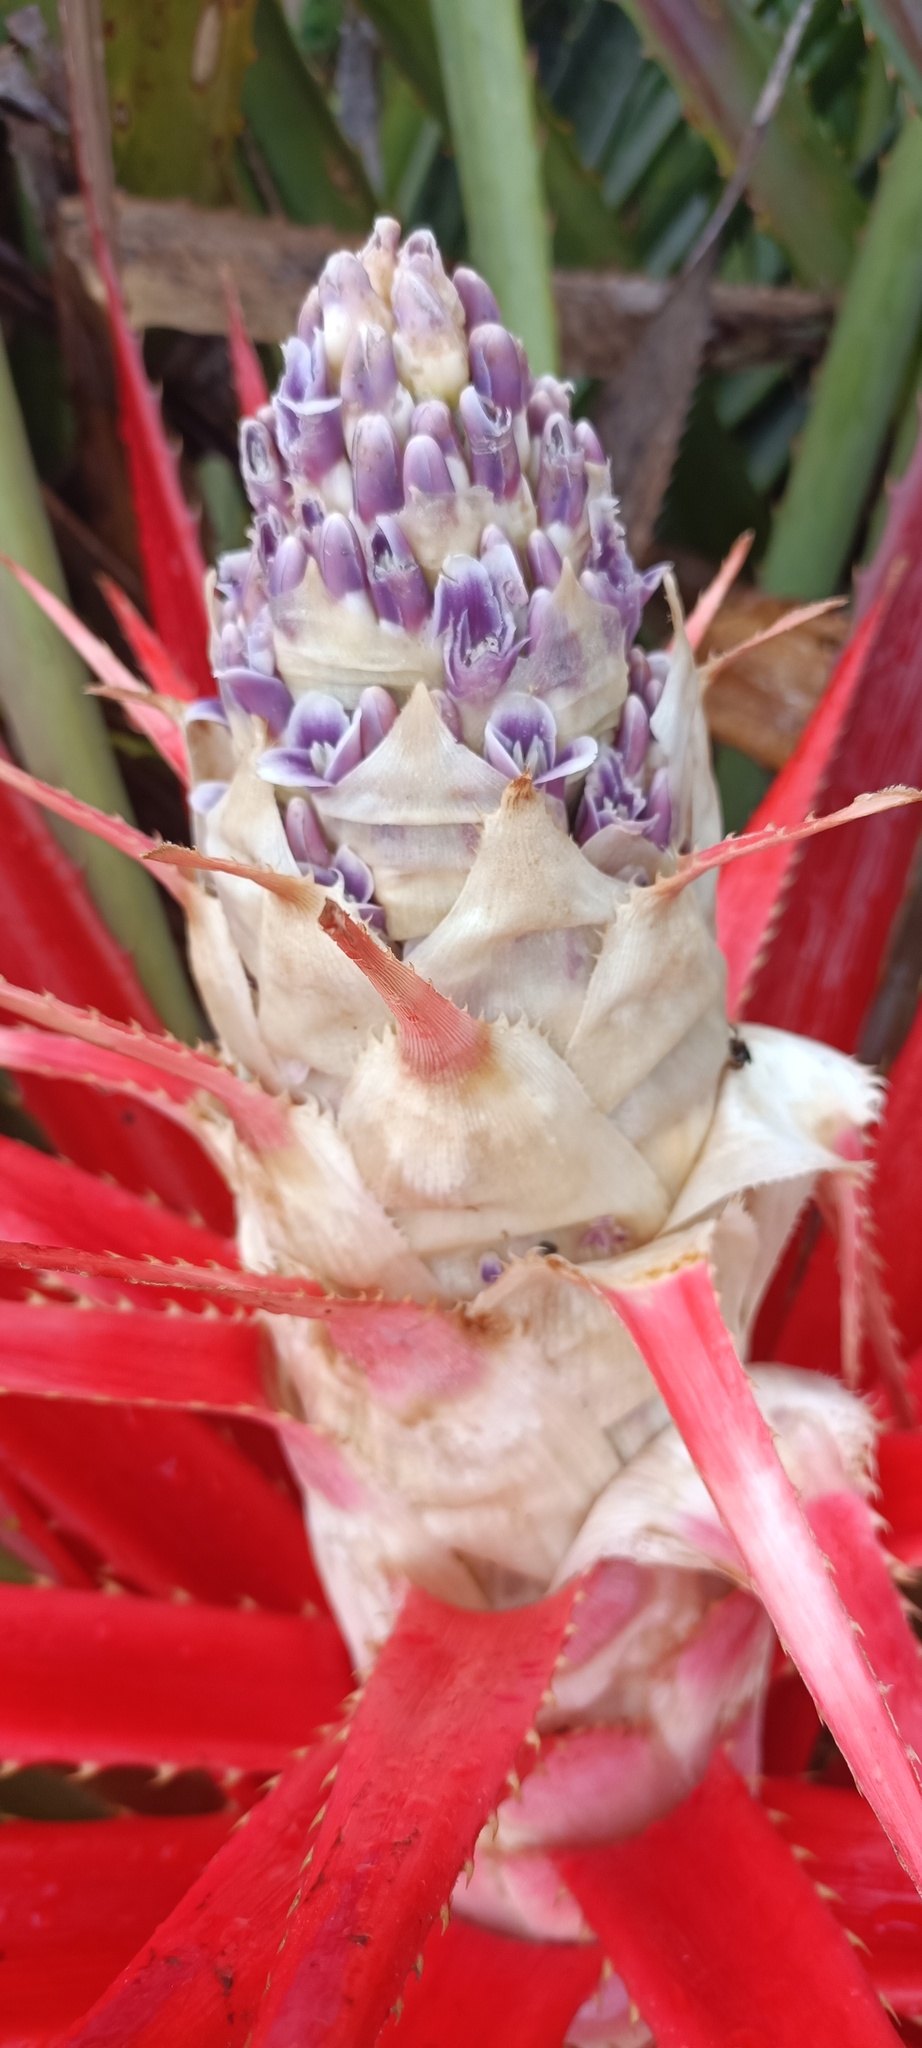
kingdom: Plantae
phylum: Tracheophyta
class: Liliopsida
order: Poales
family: Bromeliaceae
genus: Bromelia
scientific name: Bromelia antiacantha
